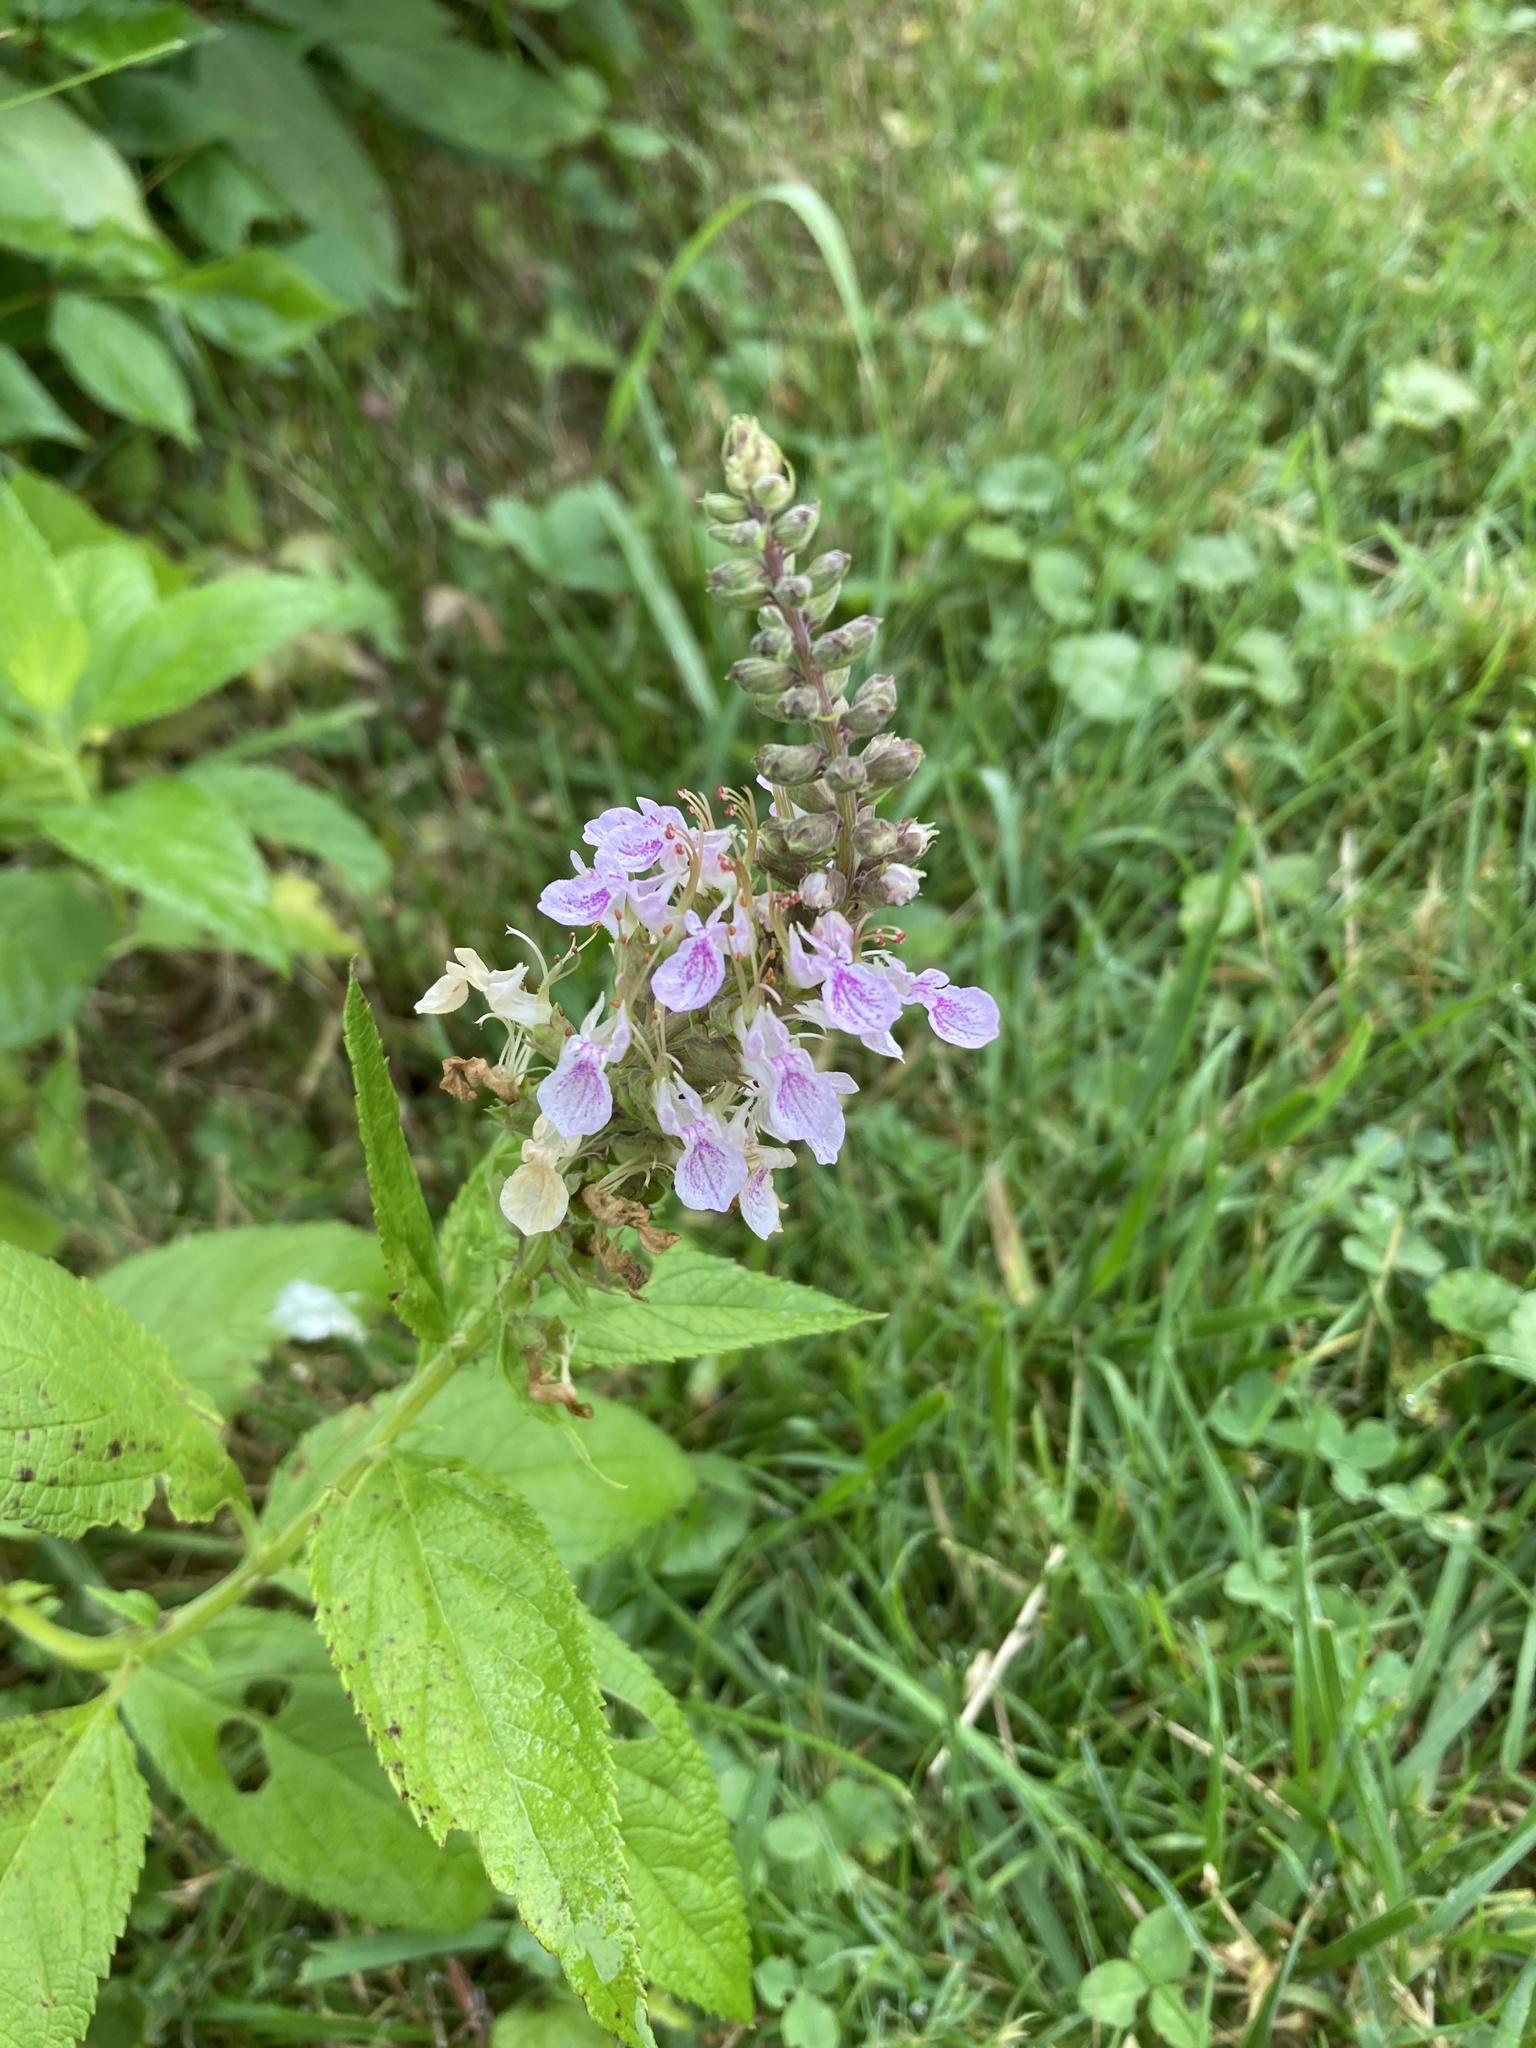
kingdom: Plantae
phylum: Tracheophyta
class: Magnoliopsida
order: Lamiales
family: Lamiaceae
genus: Teucrium
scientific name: Teucrium canadense
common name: American germander
